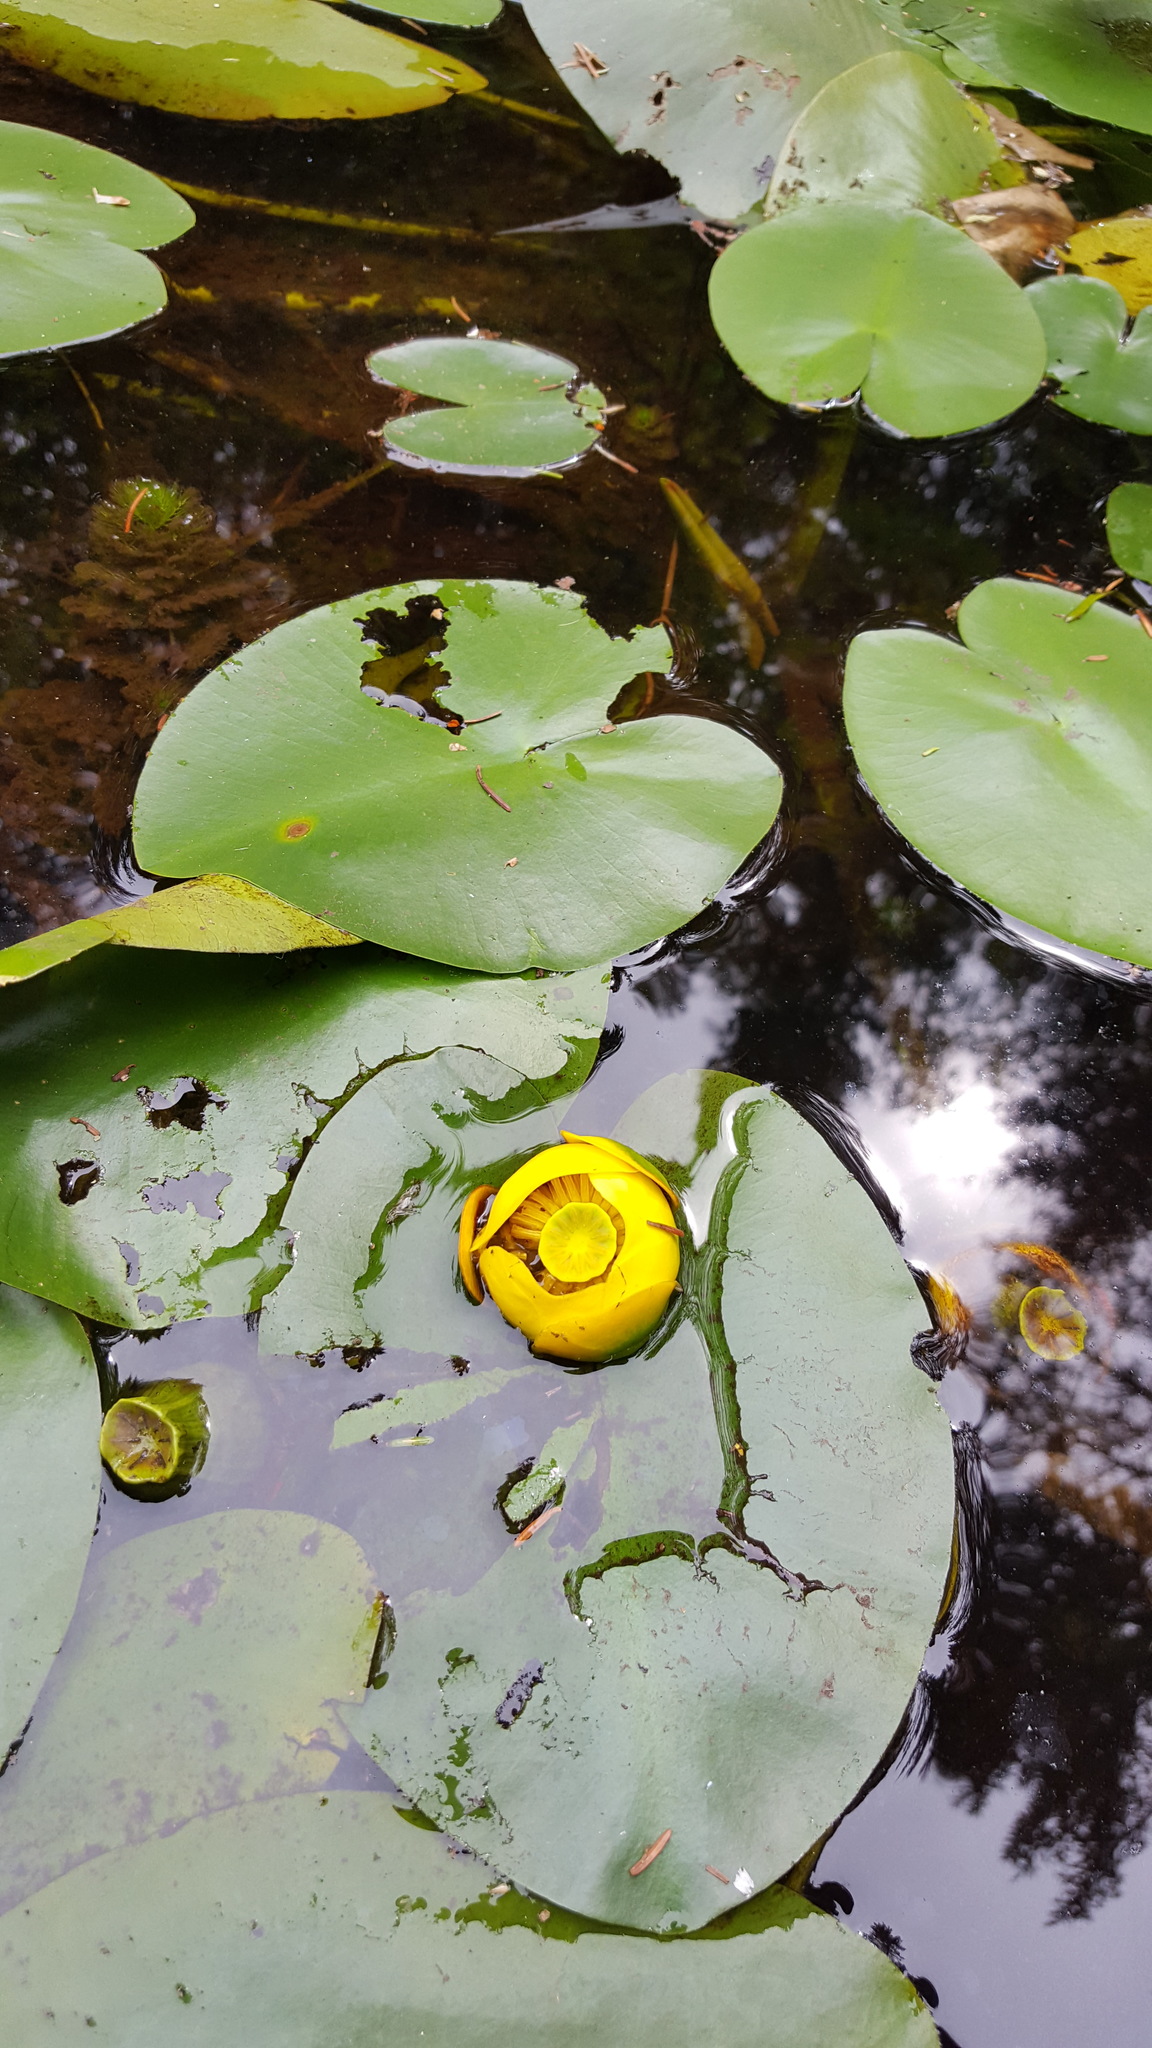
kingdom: Plantae
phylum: Tracheophyta
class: Magnoliopsida
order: Nymphaeales
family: Nymphaeaceae
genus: Nuphar
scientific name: Nuphar variegata
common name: Beaver-root
